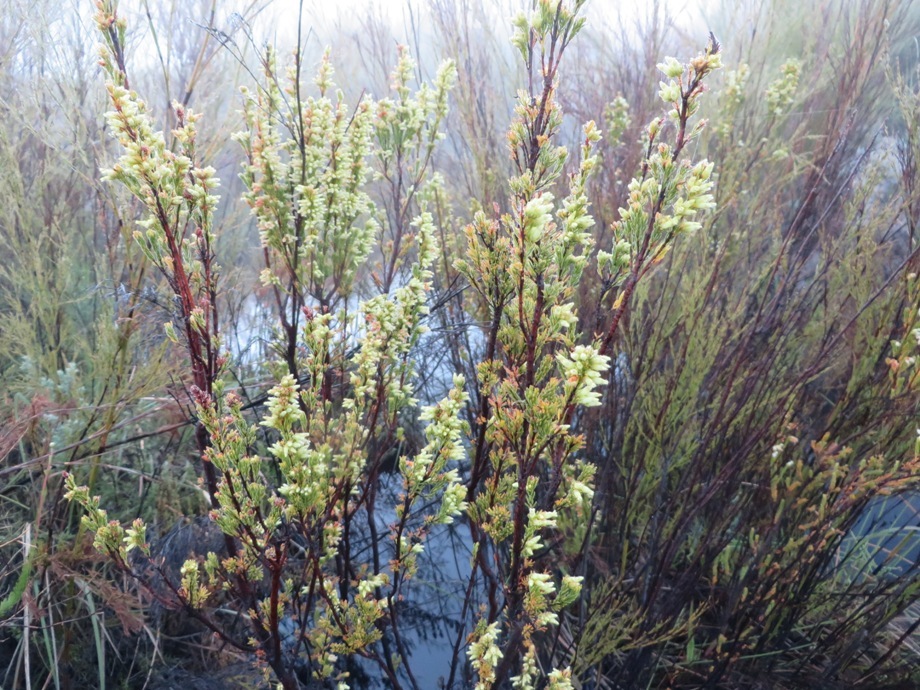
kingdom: Plantae
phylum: Tracheophyta
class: Magnoliopsida
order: Ericales
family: Ericaceae
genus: Erica
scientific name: Erica lutea
